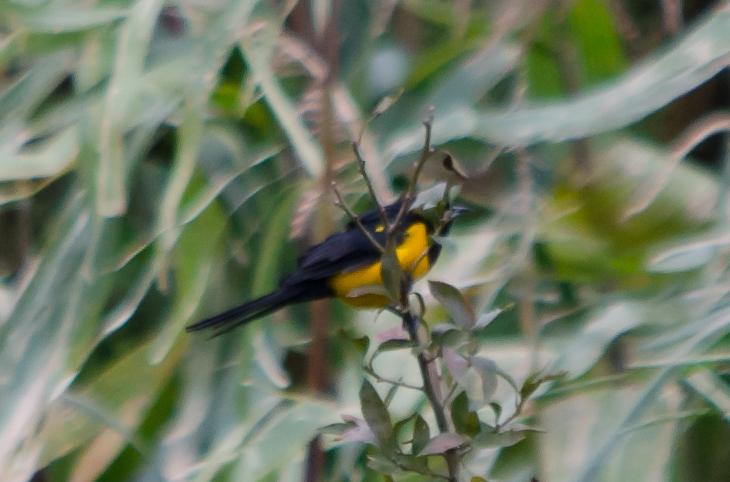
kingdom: Animalia
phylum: Chordata
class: Aves
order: Passeriformes
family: Icteridae
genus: Icterus
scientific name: Icterus wagleri
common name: Black-vented oriole
